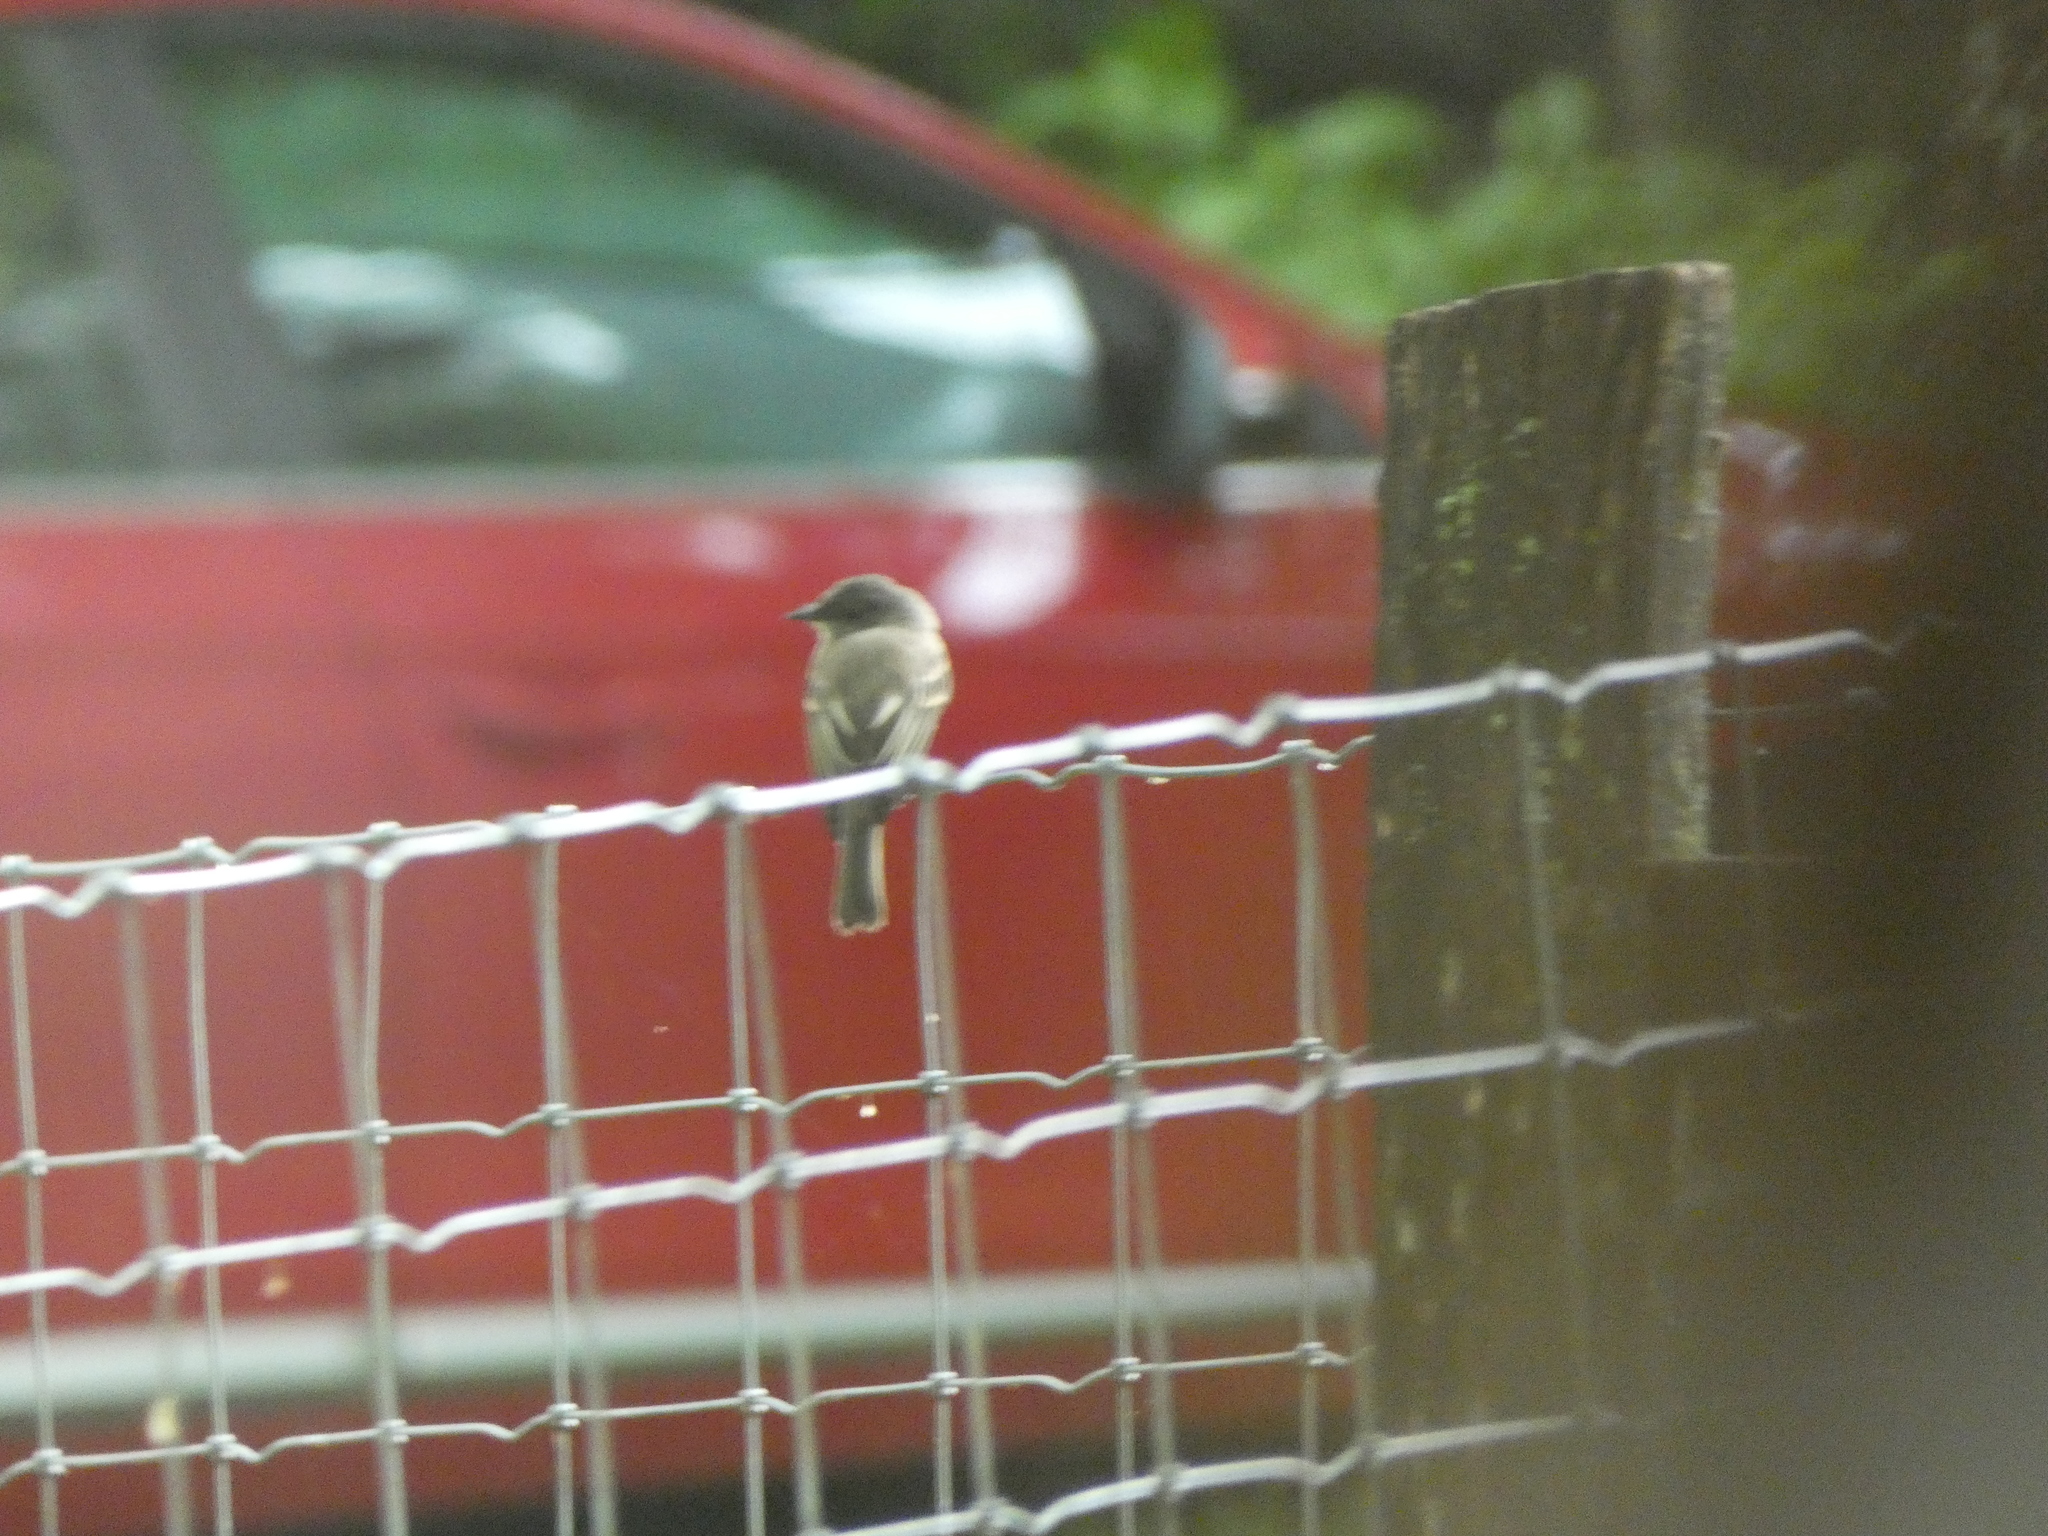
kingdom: Animalia
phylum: Chordata
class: Aves
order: Passeriformes
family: Tyrannidae
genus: Sayornis
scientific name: Sayornis phoebe
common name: Eastern phoebe
